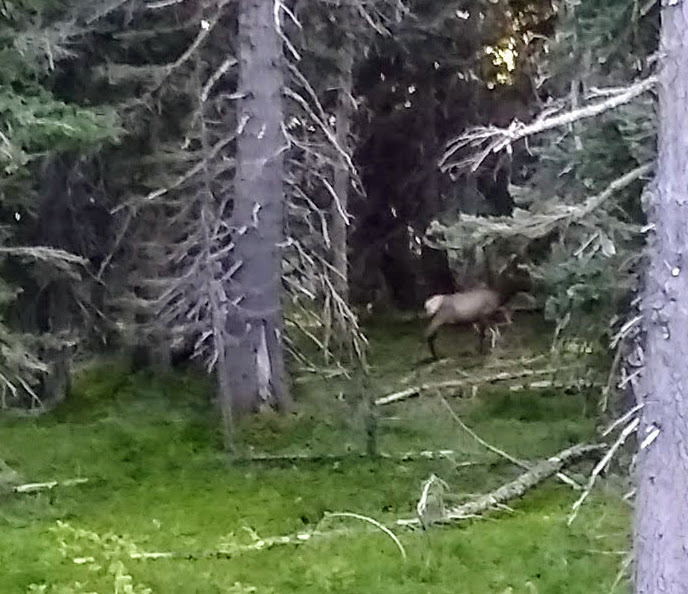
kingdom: Animalia
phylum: Chordata
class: Mammalia
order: Artiodactyla
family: Cervidae
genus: Cervus
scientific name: Cervus elaphus
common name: Red deer
